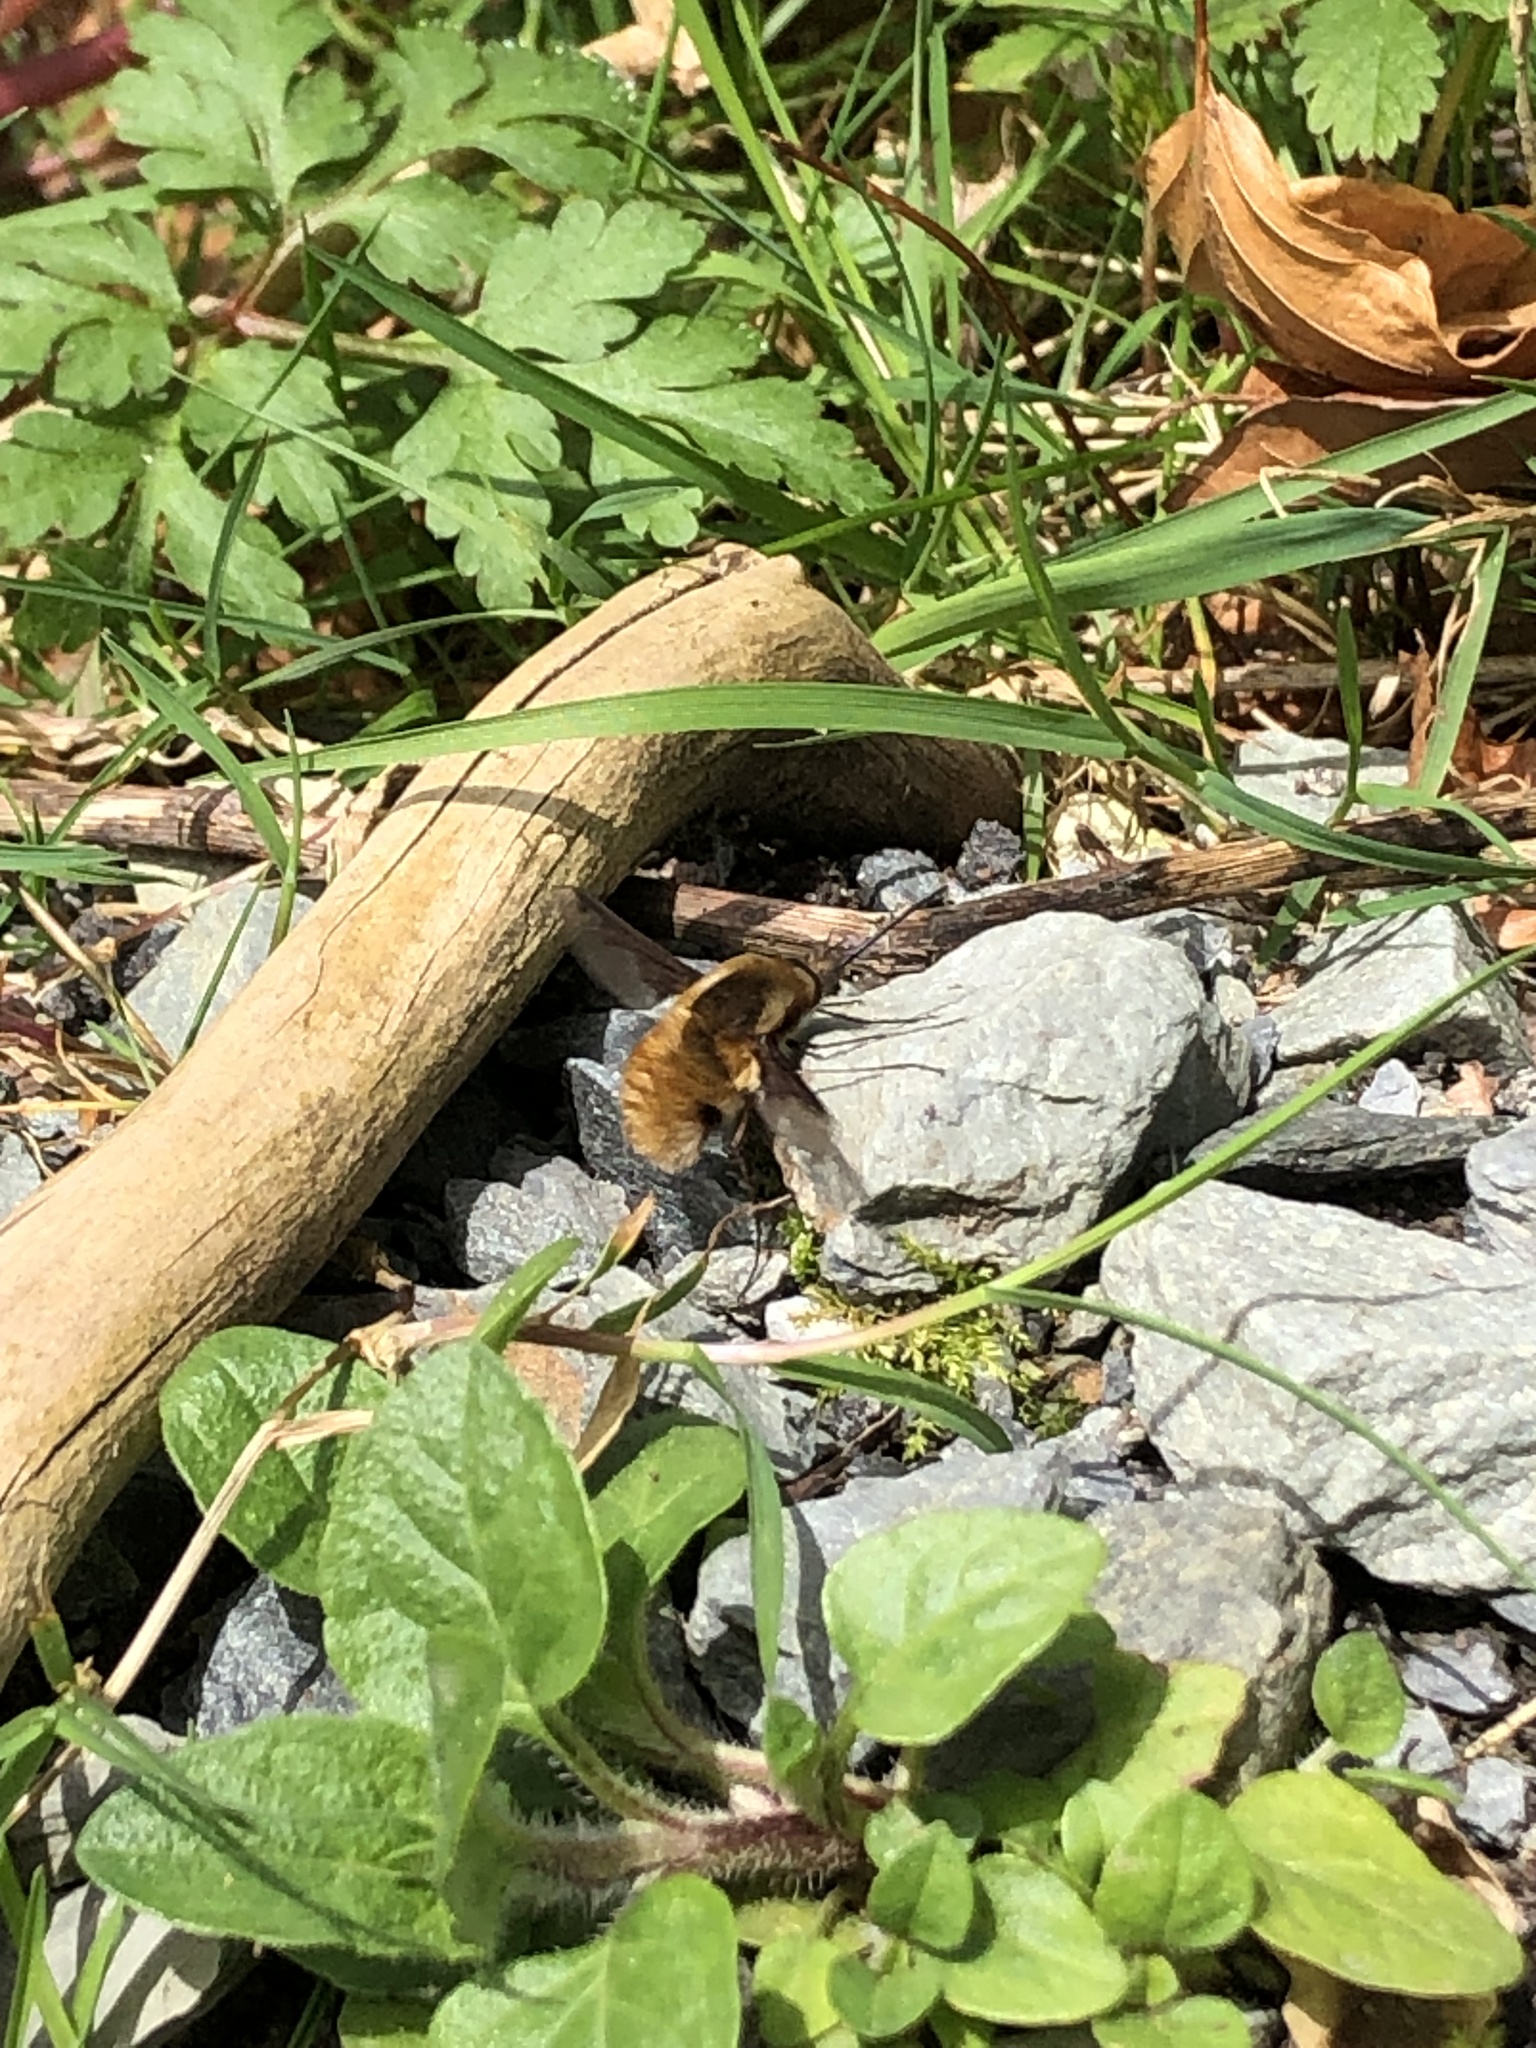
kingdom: Animalia
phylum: Arthropoda
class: Insecta
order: Diptera
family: Bombyliidae
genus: Bombylius
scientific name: Bombylius major
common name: Bee fly
